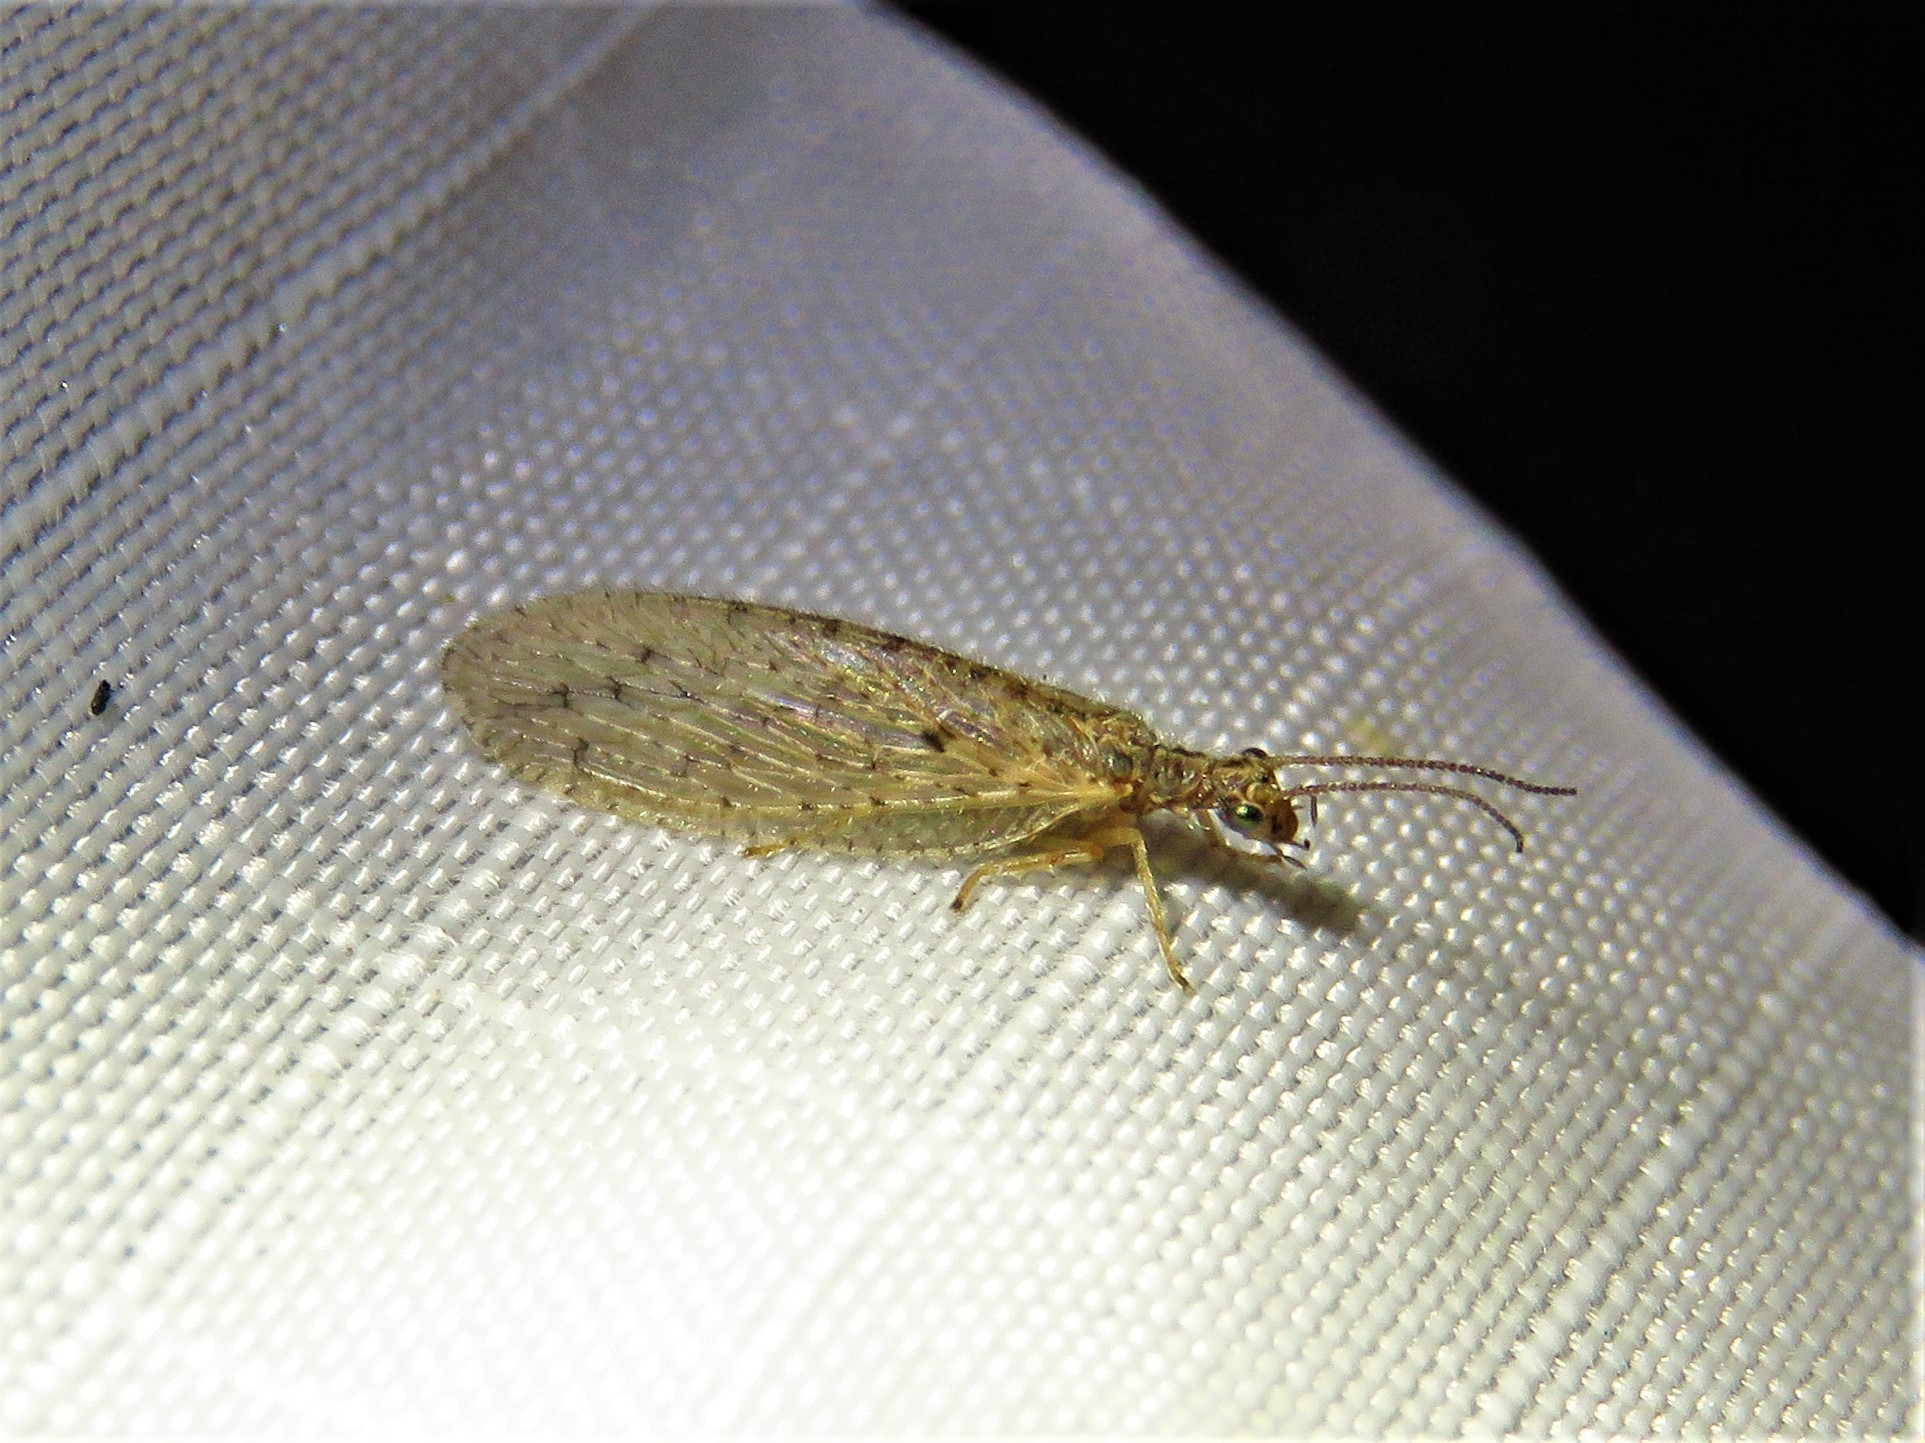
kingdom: Animalia
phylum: Arthropoda
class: Insecta
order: Neuroptera
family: Hemerobiidae
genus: Micromus
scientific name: Micromus subanticus
